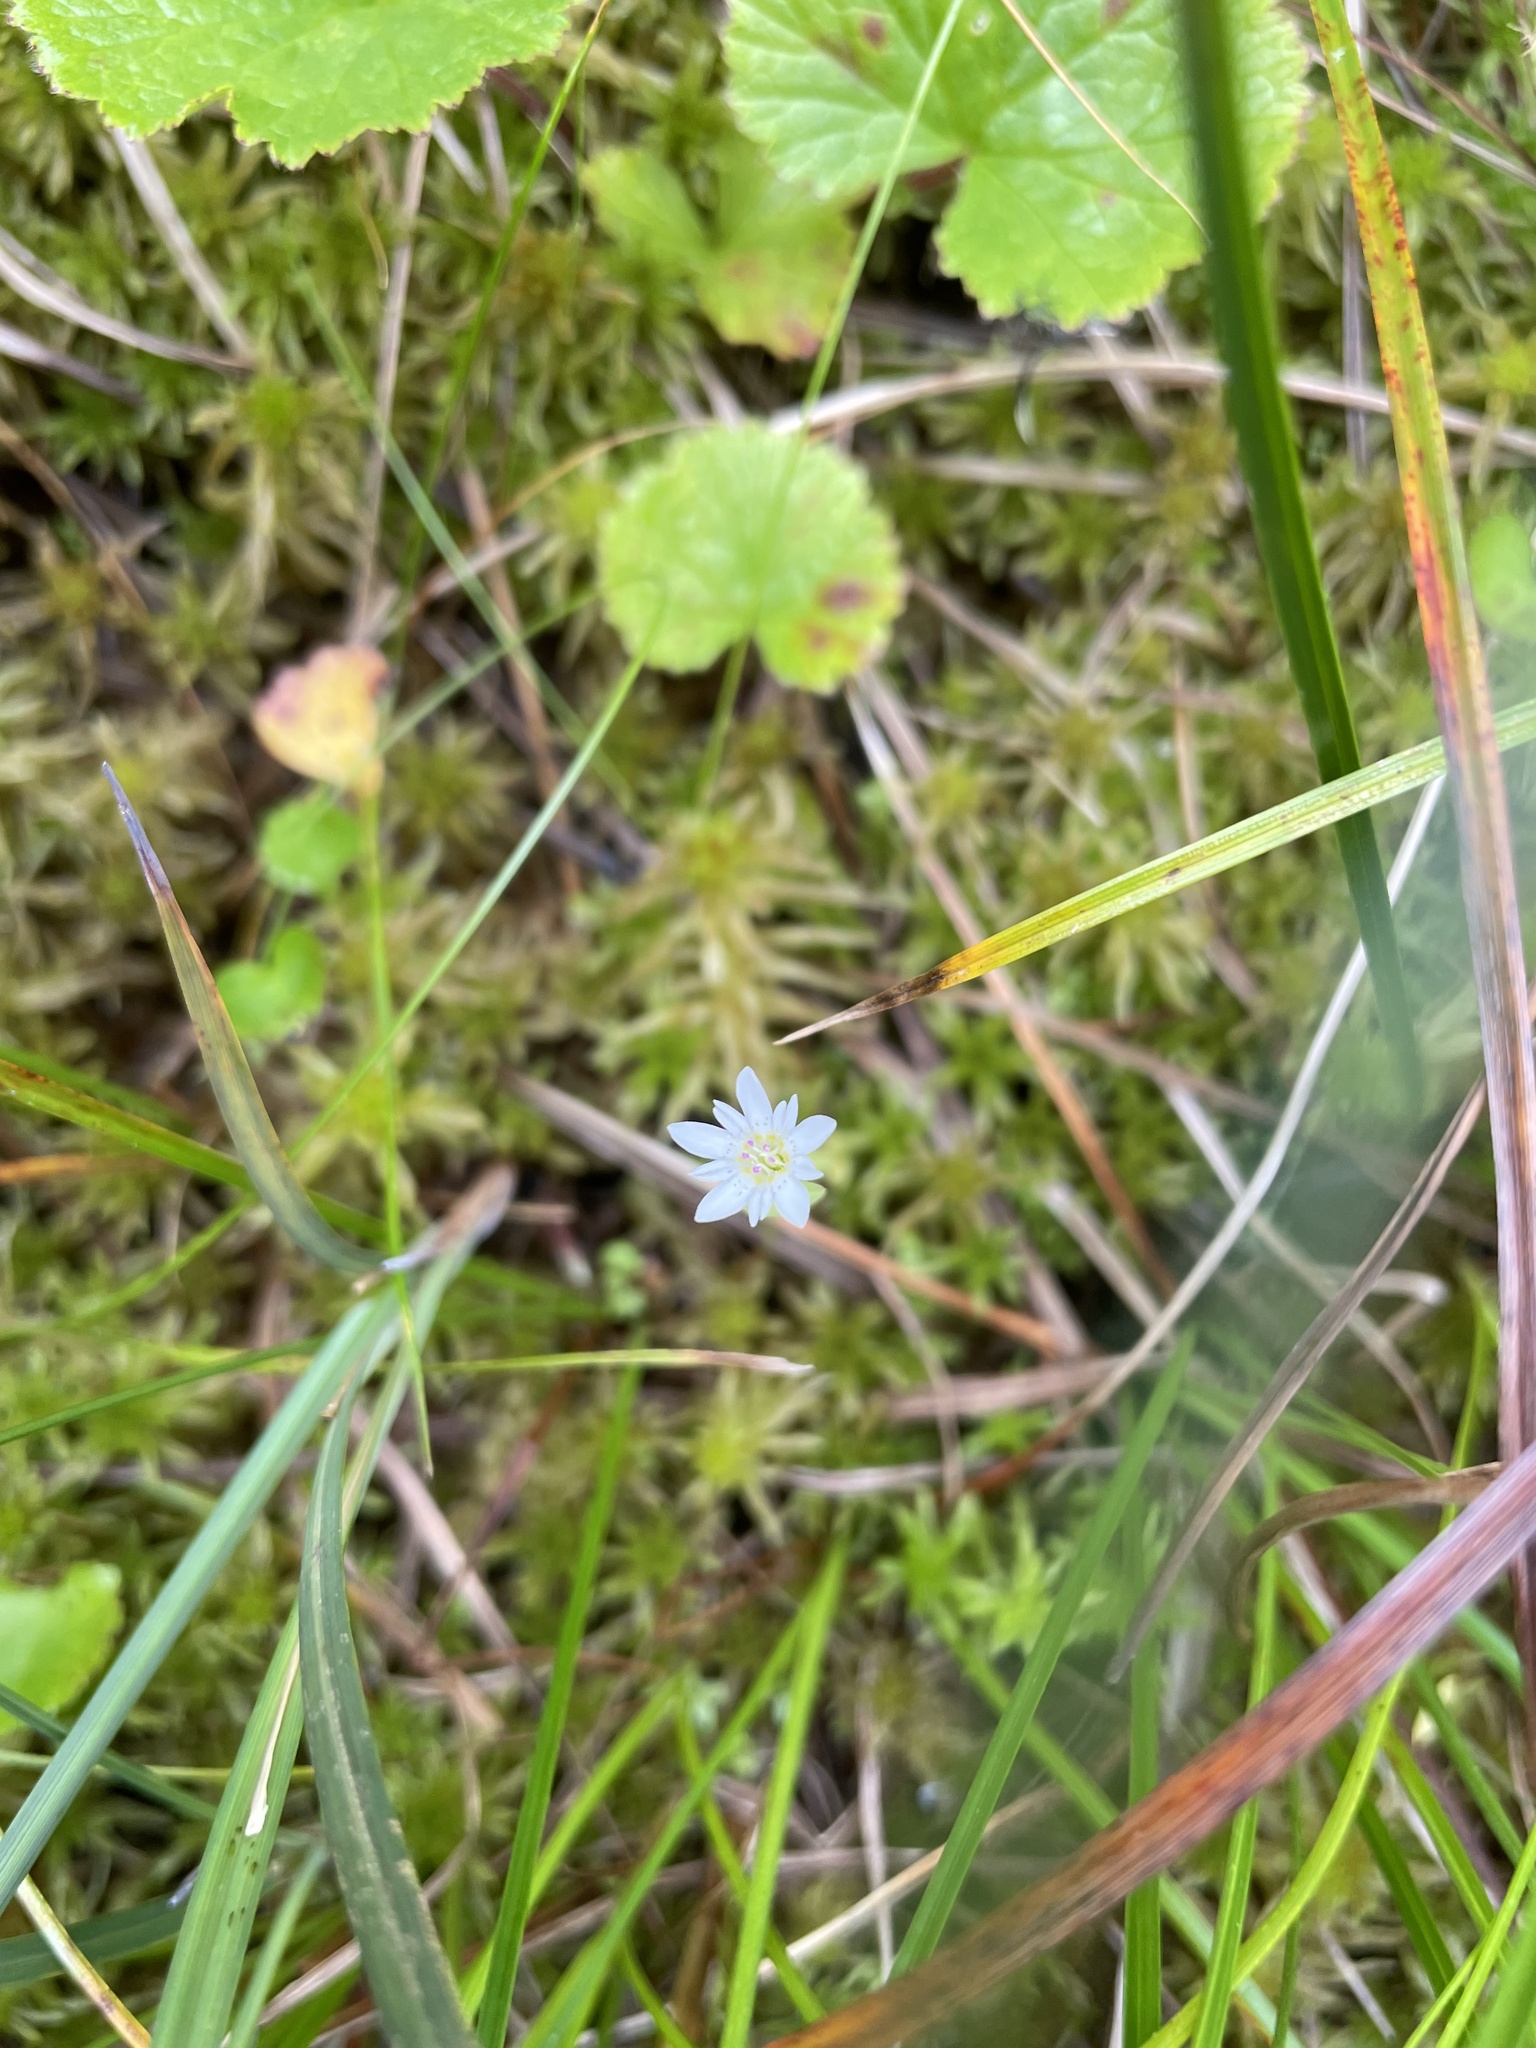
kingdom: Plantae
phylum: Tracheophyta
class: Magnoliopsida
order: Gentianales
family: Gentianaceae
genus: Gentiana
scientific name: Gentiana douglasiana
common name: Swamp gentian
